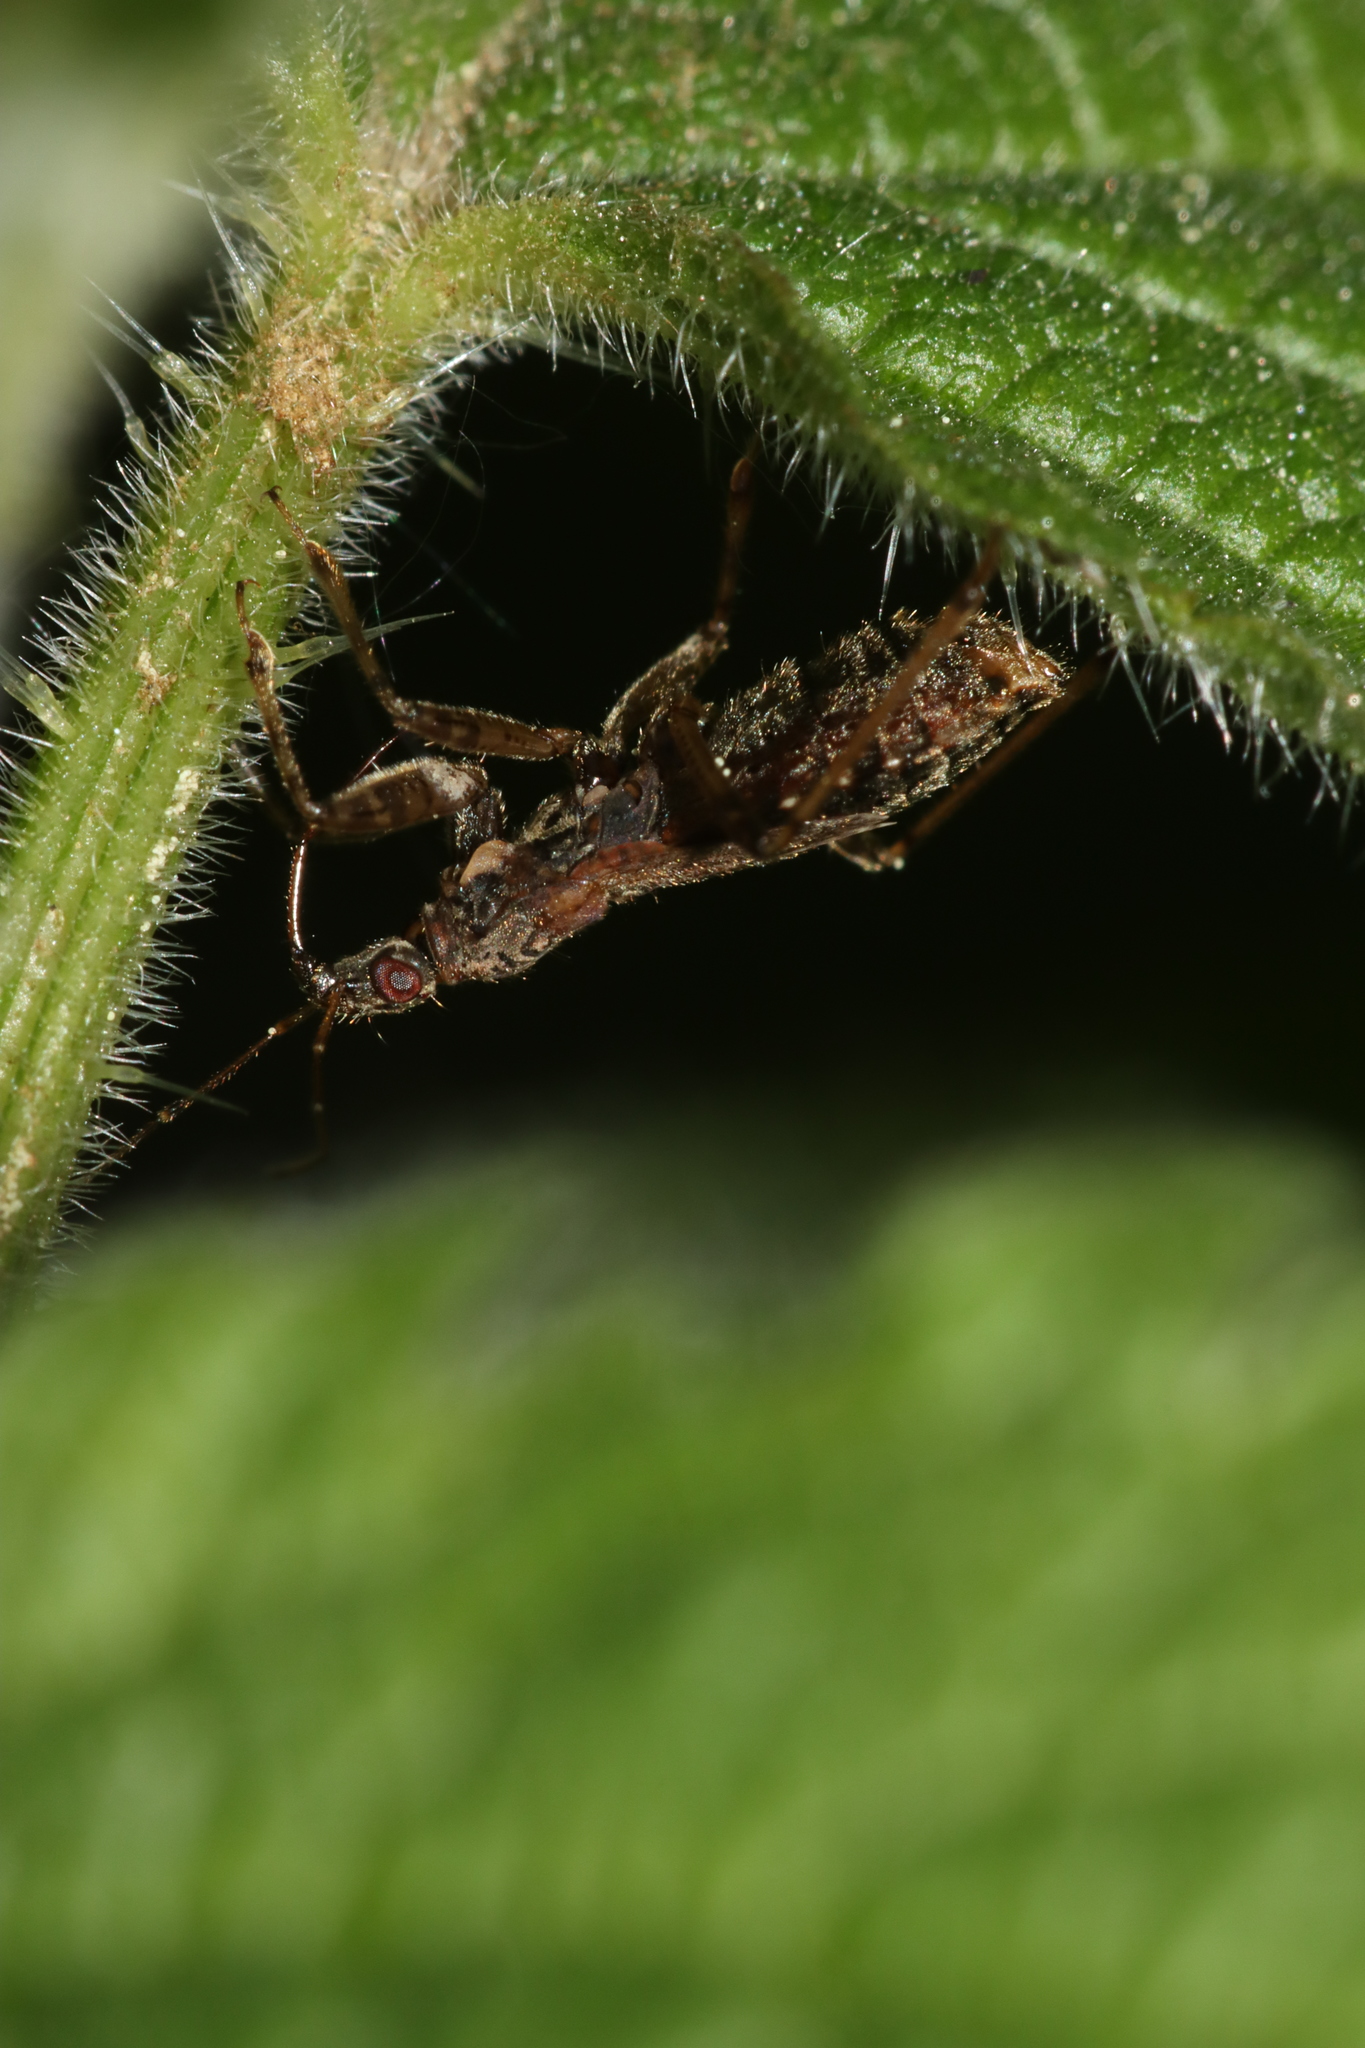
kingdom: Animalia
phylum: Arthropoda
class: Insecta
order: Hemiptera
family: Nabidae
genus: Himacerus
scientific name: Himacerus mirmicoides
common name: Ant damsel bug
